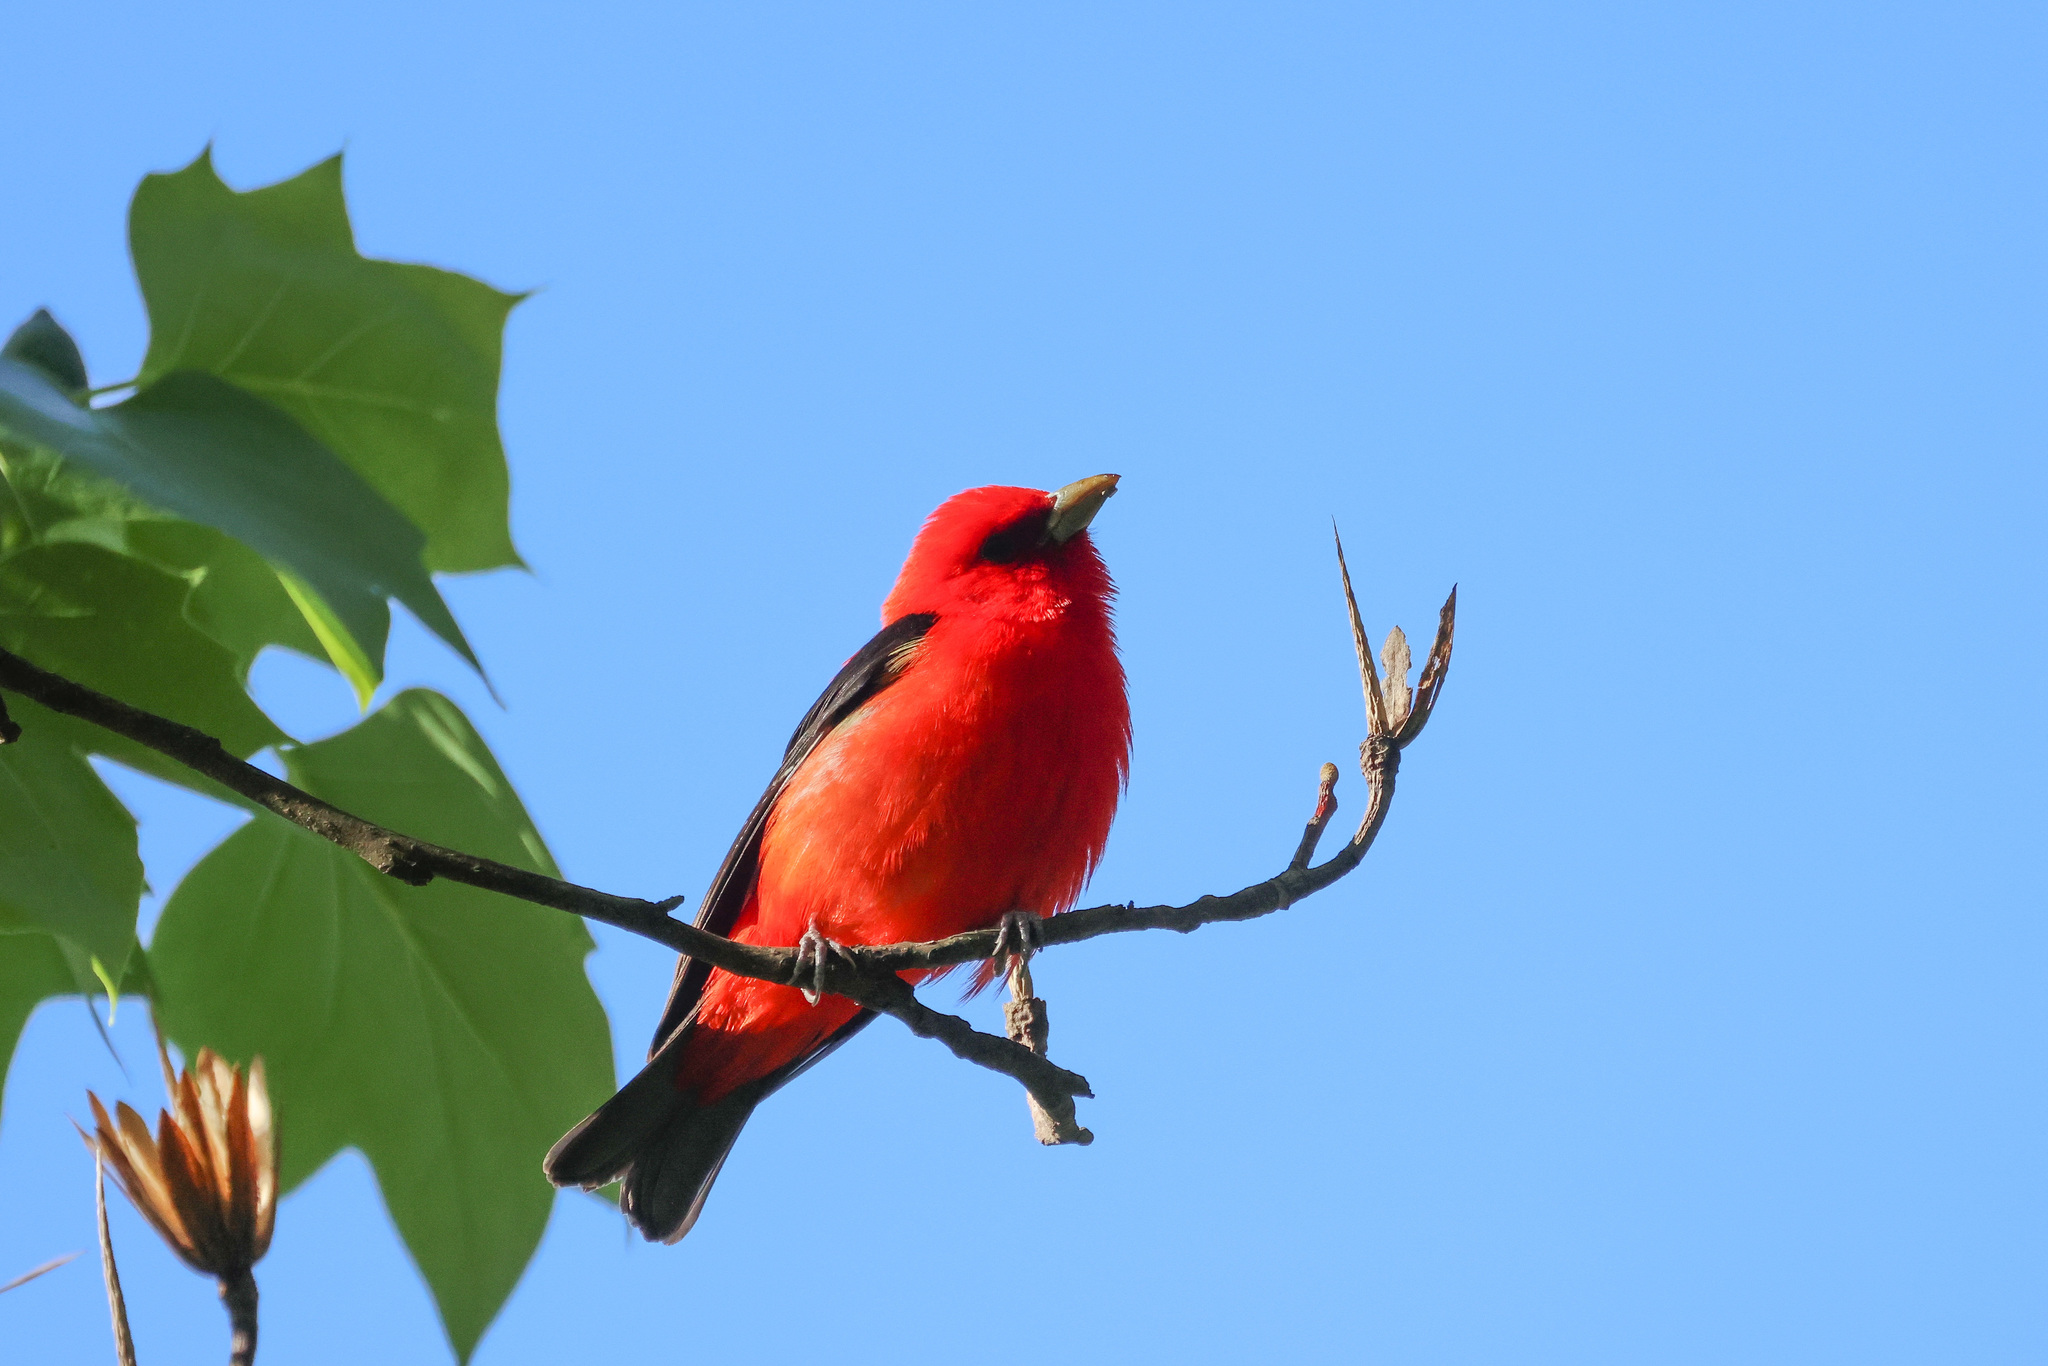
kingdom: Animalia
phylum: Chordata
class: Aves
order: Passeriformes
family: Cardinalidae
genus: Piranga
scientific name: Piranga olivacea
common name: Scarlet tanager
